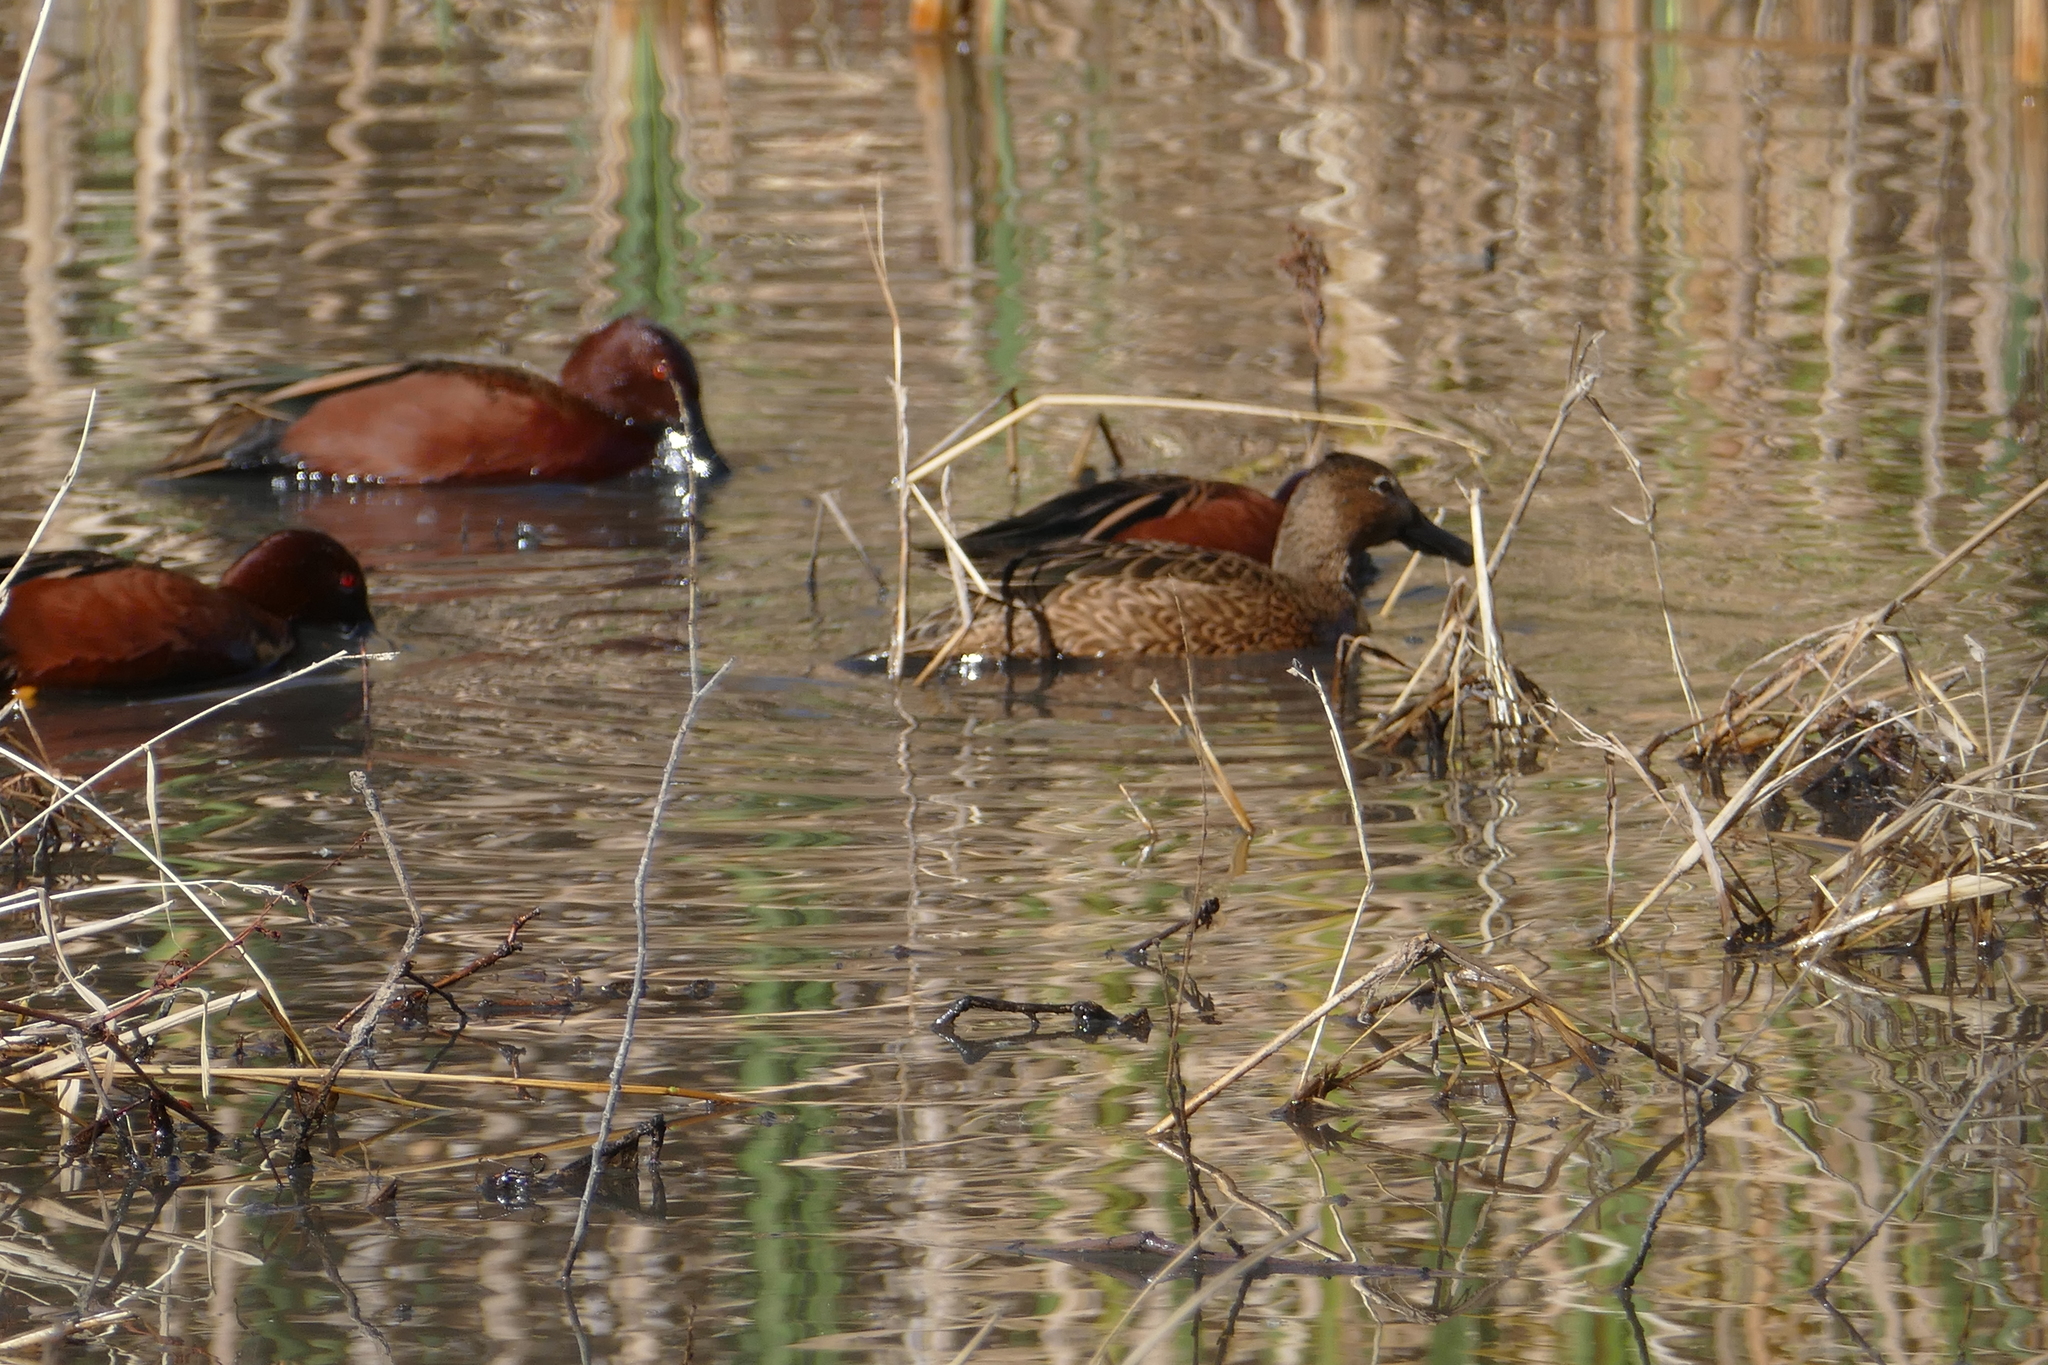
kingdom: Animalia
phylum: Chordata
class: Aves
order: Anseriformes
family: Anatidae
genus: Spatula
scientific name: Spatula cyanoptera
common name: Cinnamon teal
